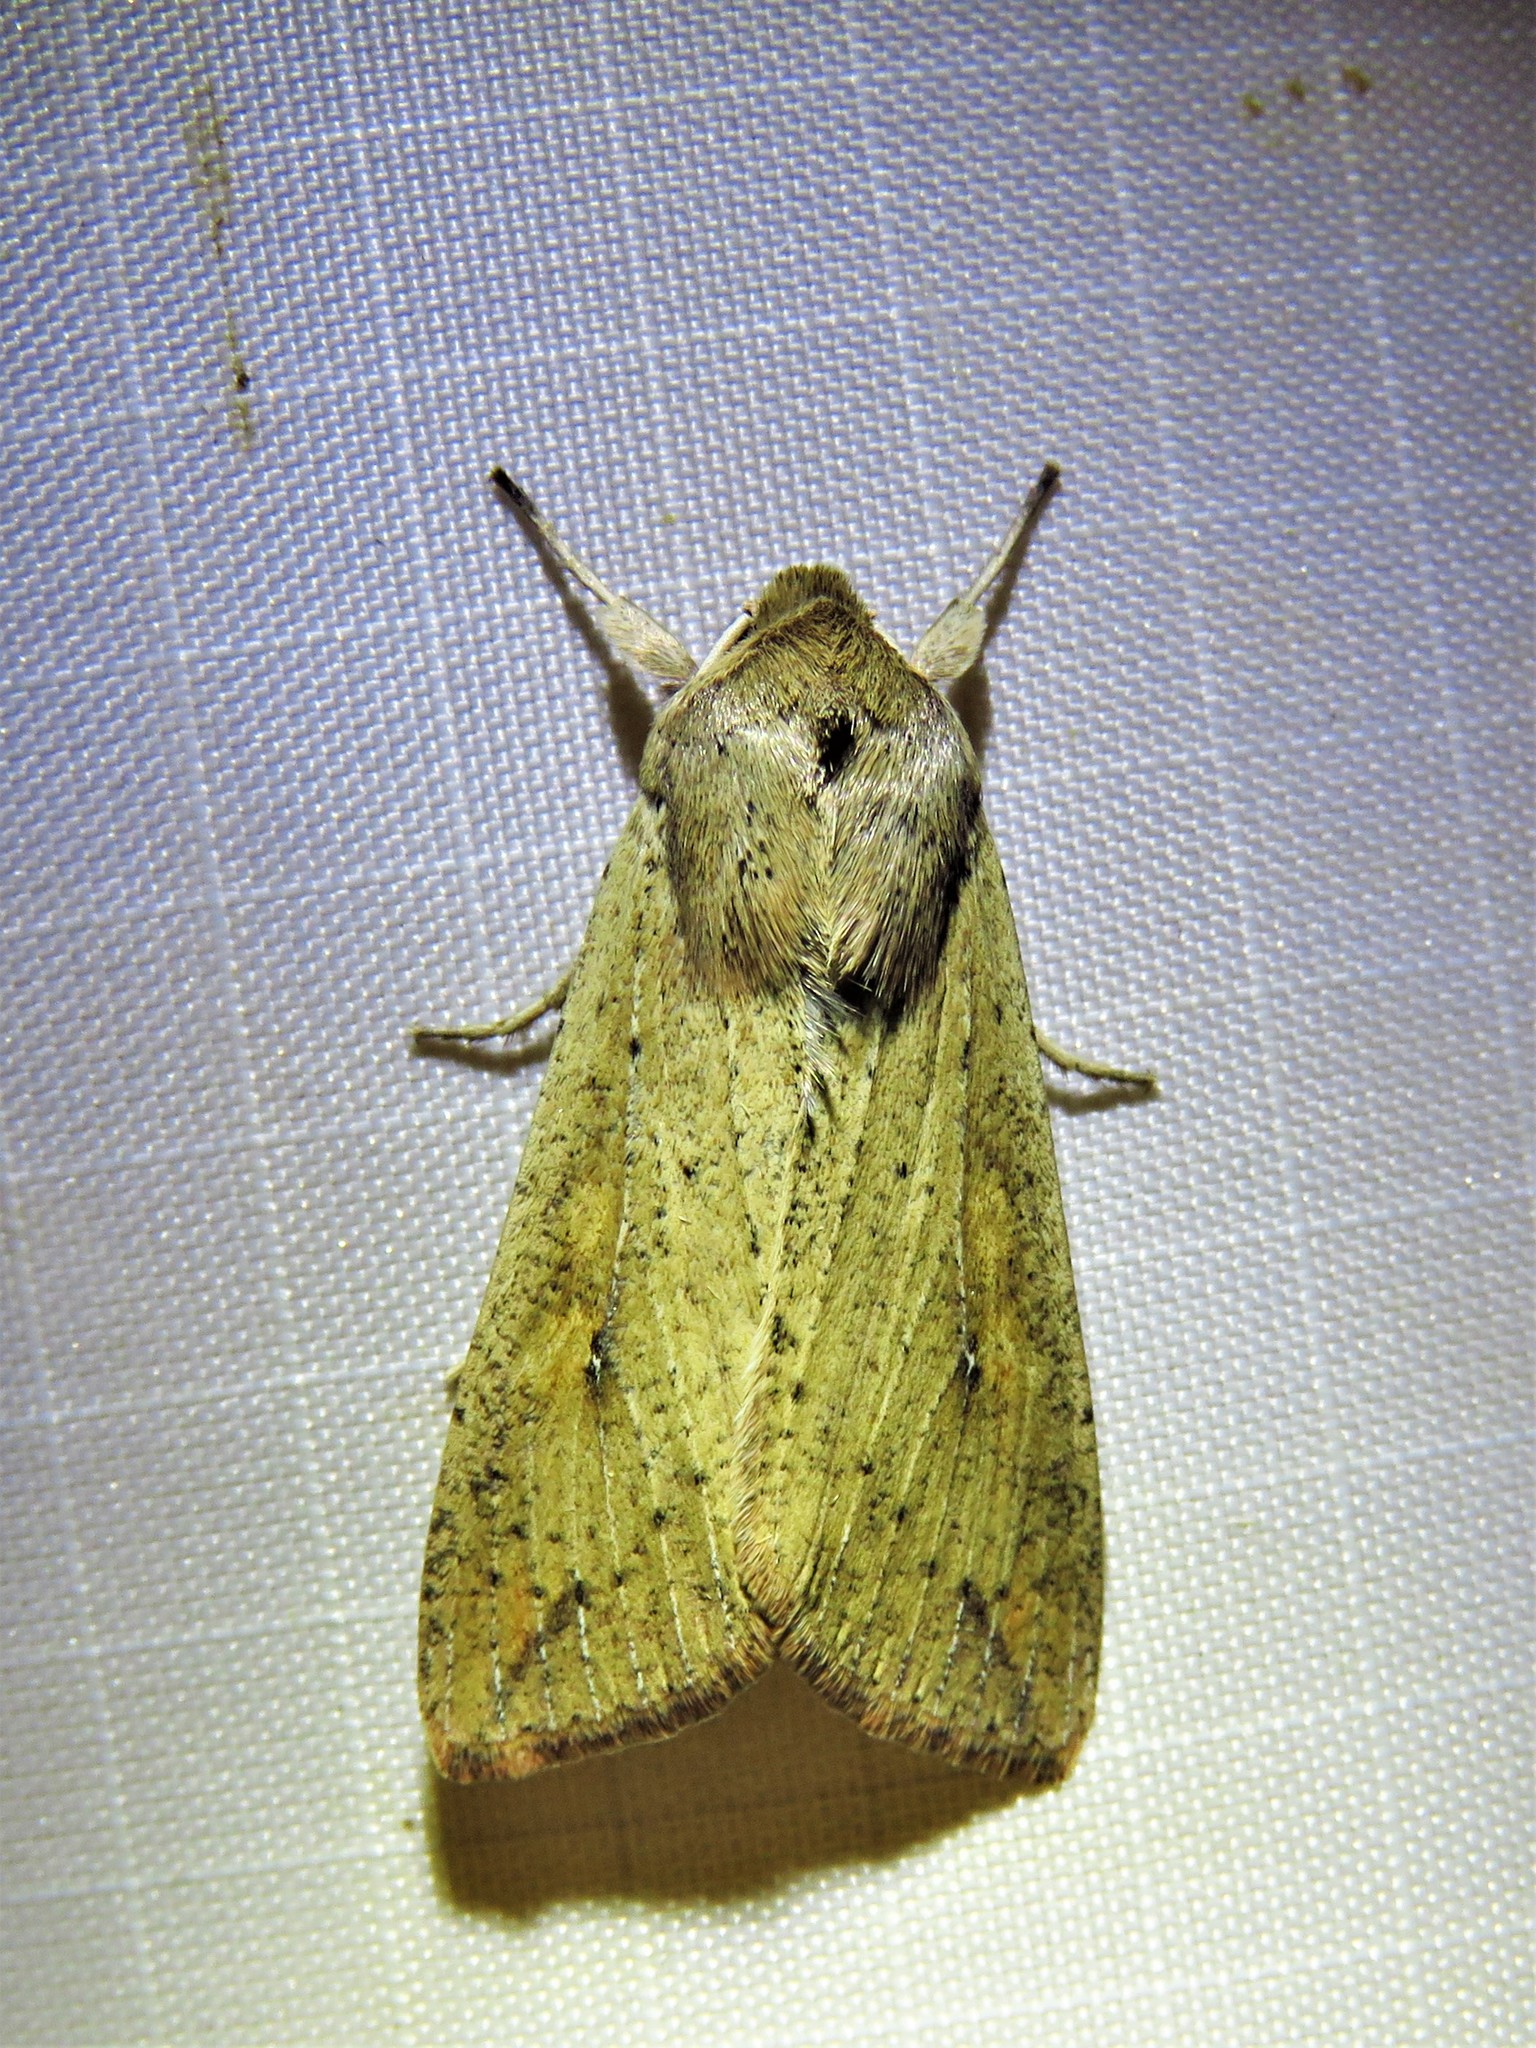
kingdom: Animalia
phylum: Arthropoda
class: Insecta
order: Lepidoptera
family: Noctuidae
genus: Mythimna
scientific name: Mythimna unipuncta
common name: White-speck
